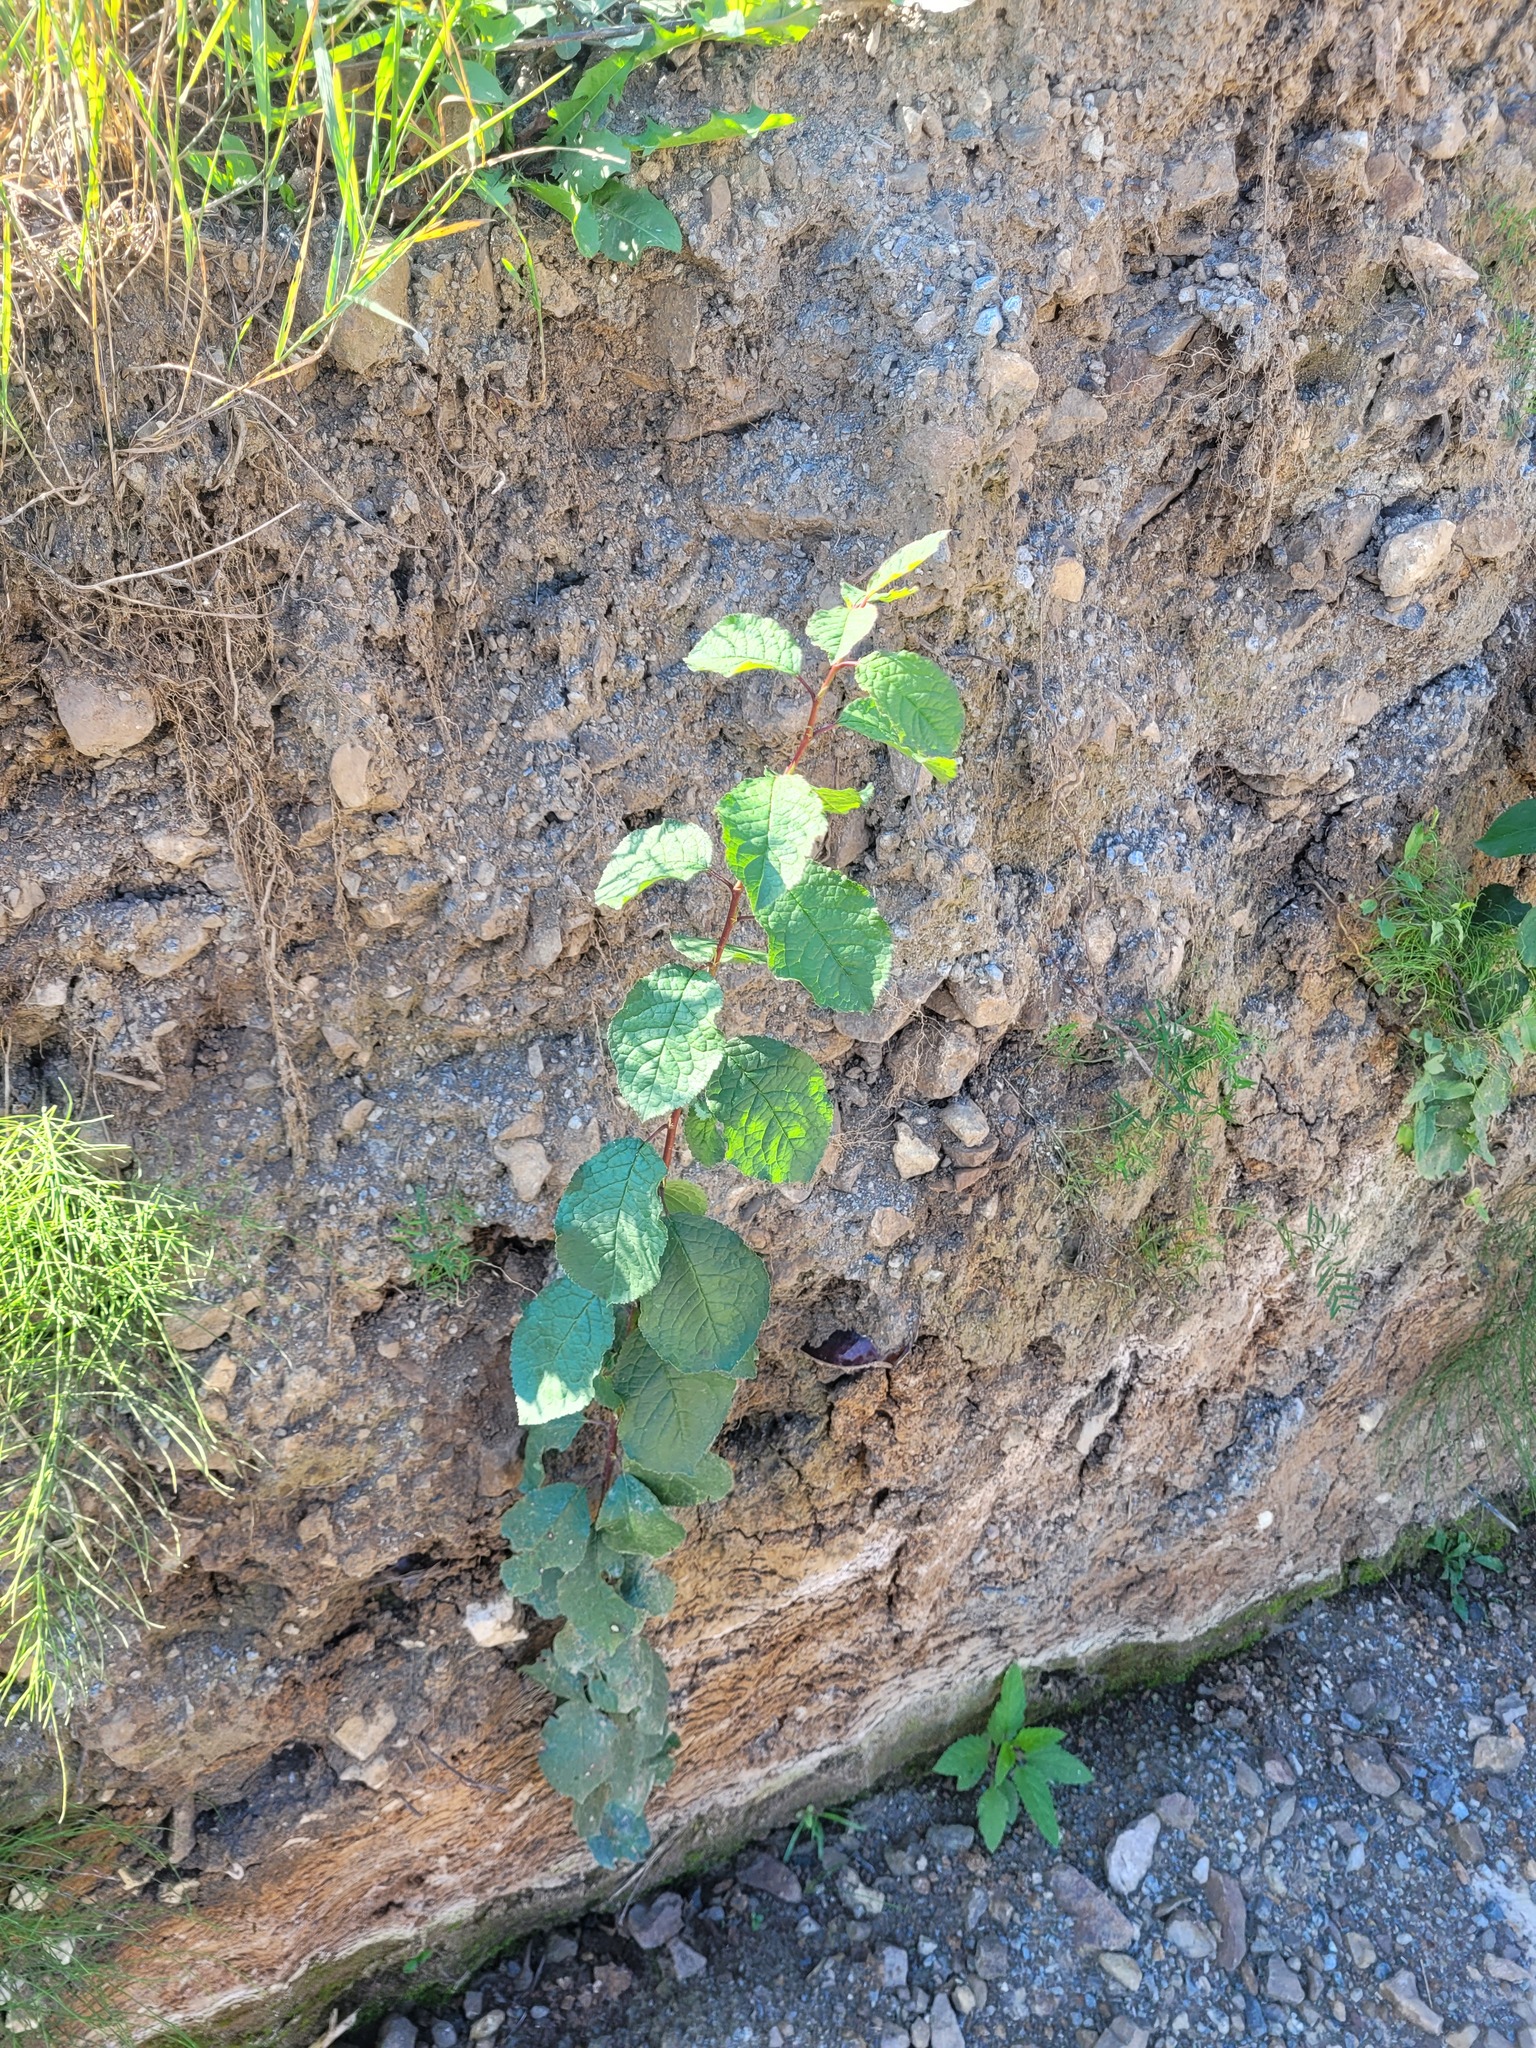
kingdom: Plantae
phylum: Tracheophyta
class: Magnoliopsida
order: Rosales
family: Rosaceae
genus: Prunus
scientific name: Prunus padus
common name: Bird cherry
